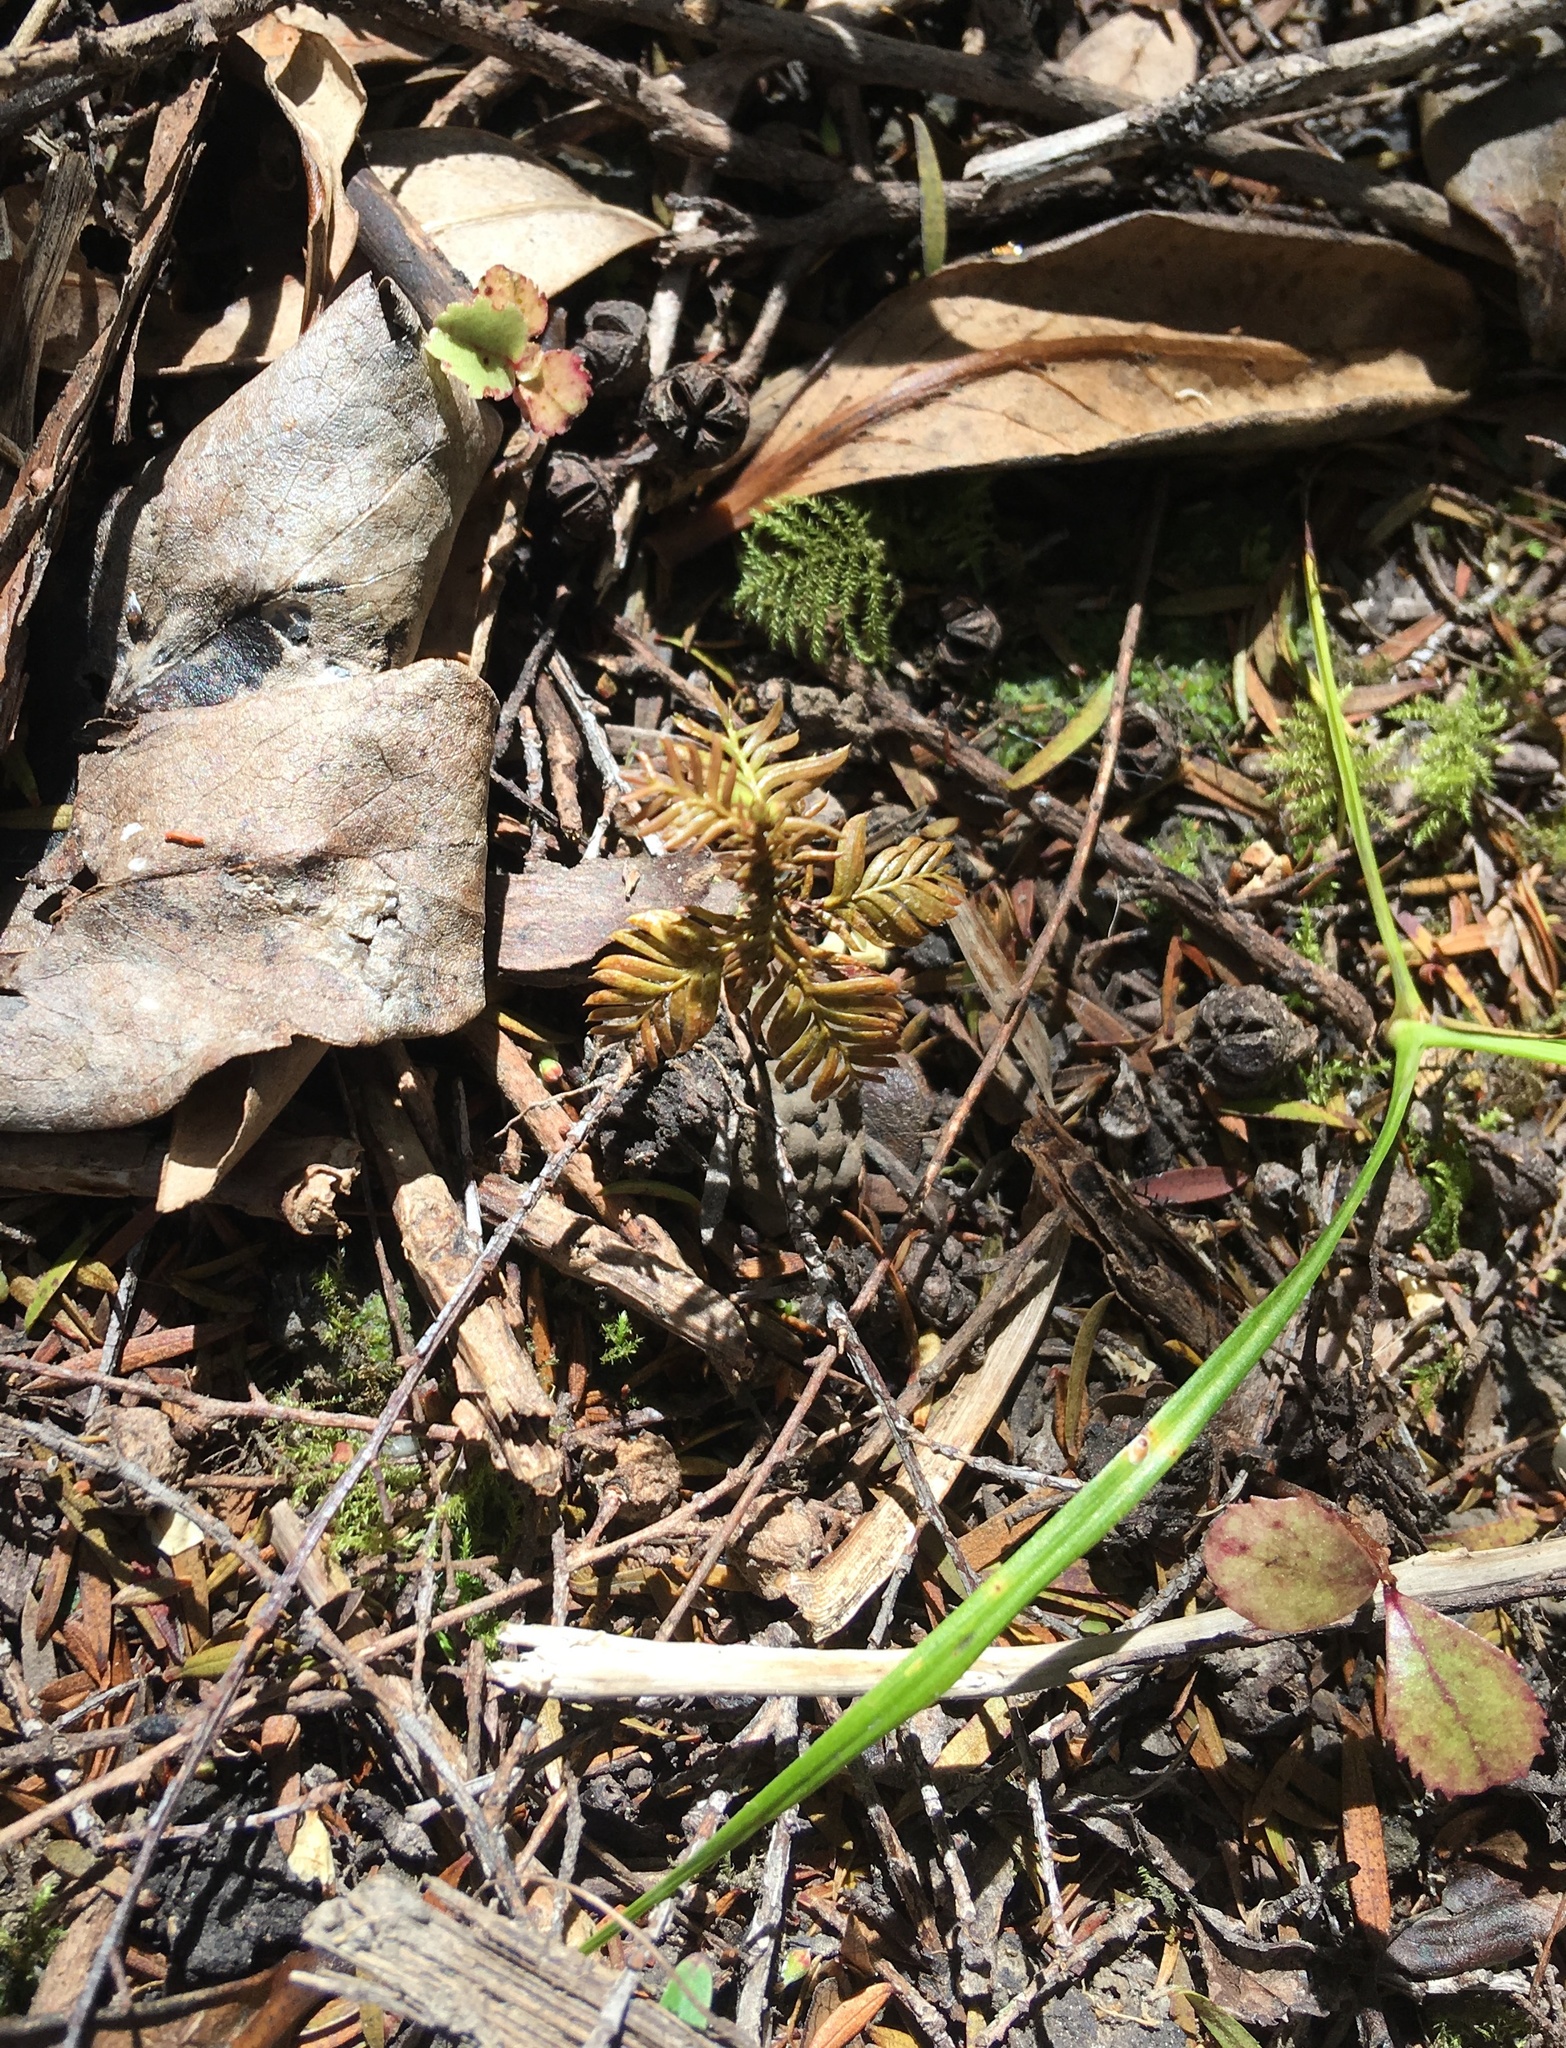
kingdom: Plantae
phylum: Tracheophyta
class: Pinopsida
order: Pinales
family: Podocarpaceae
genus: Dacrycarpus
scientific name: Dacrycarpus dacrydioides
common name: White pine
